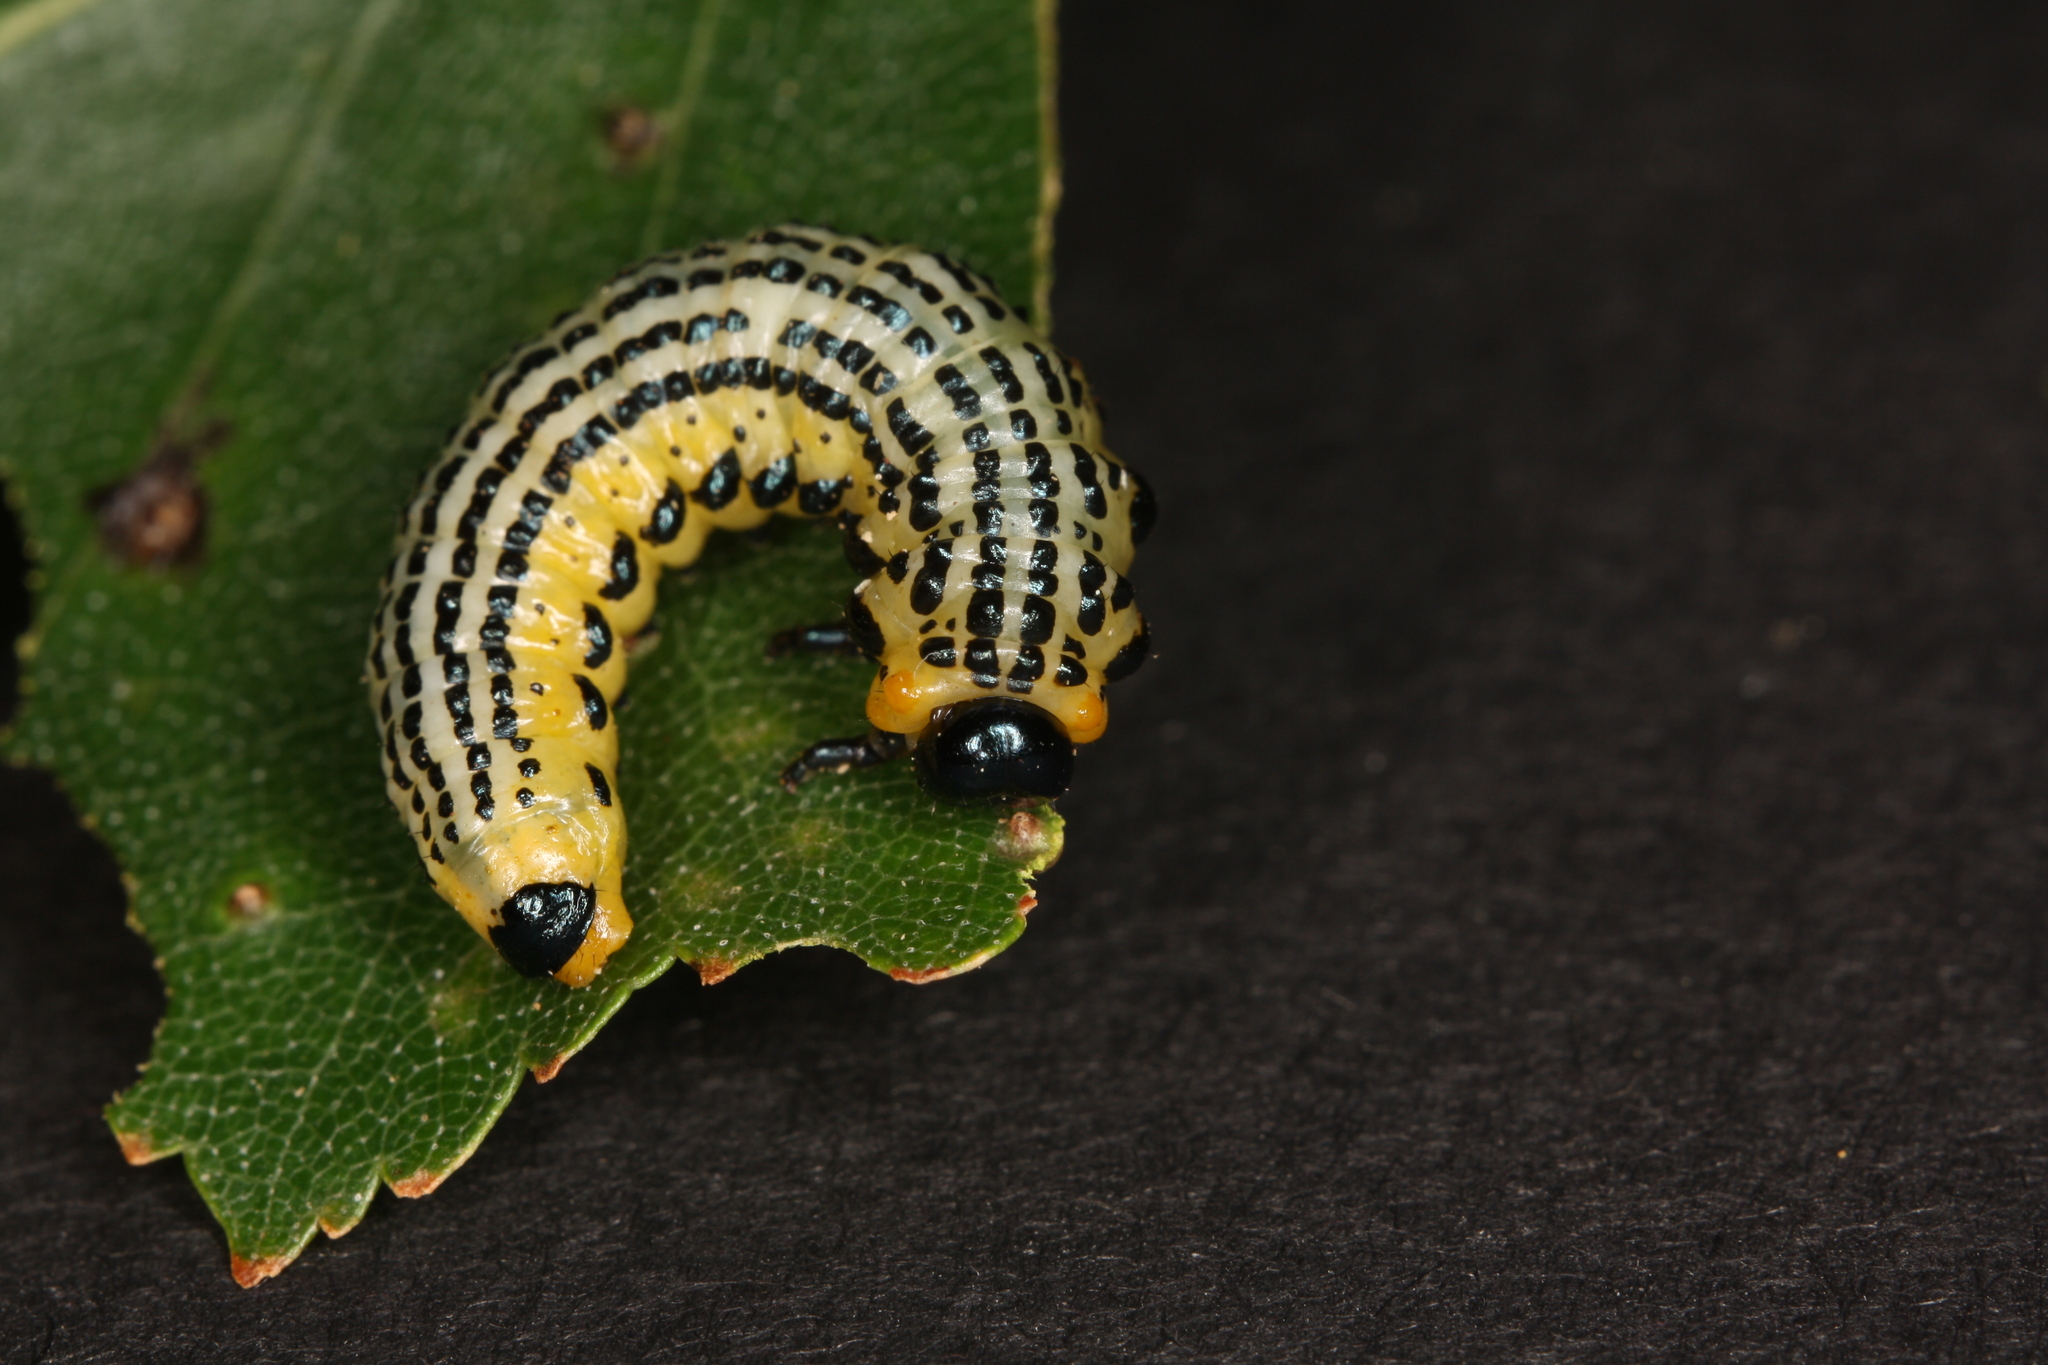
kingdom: Animalia
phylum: Arthropoda
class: Insecta
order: Hymenoptera
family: Argidae
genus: Arge
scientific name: Arge pullata
